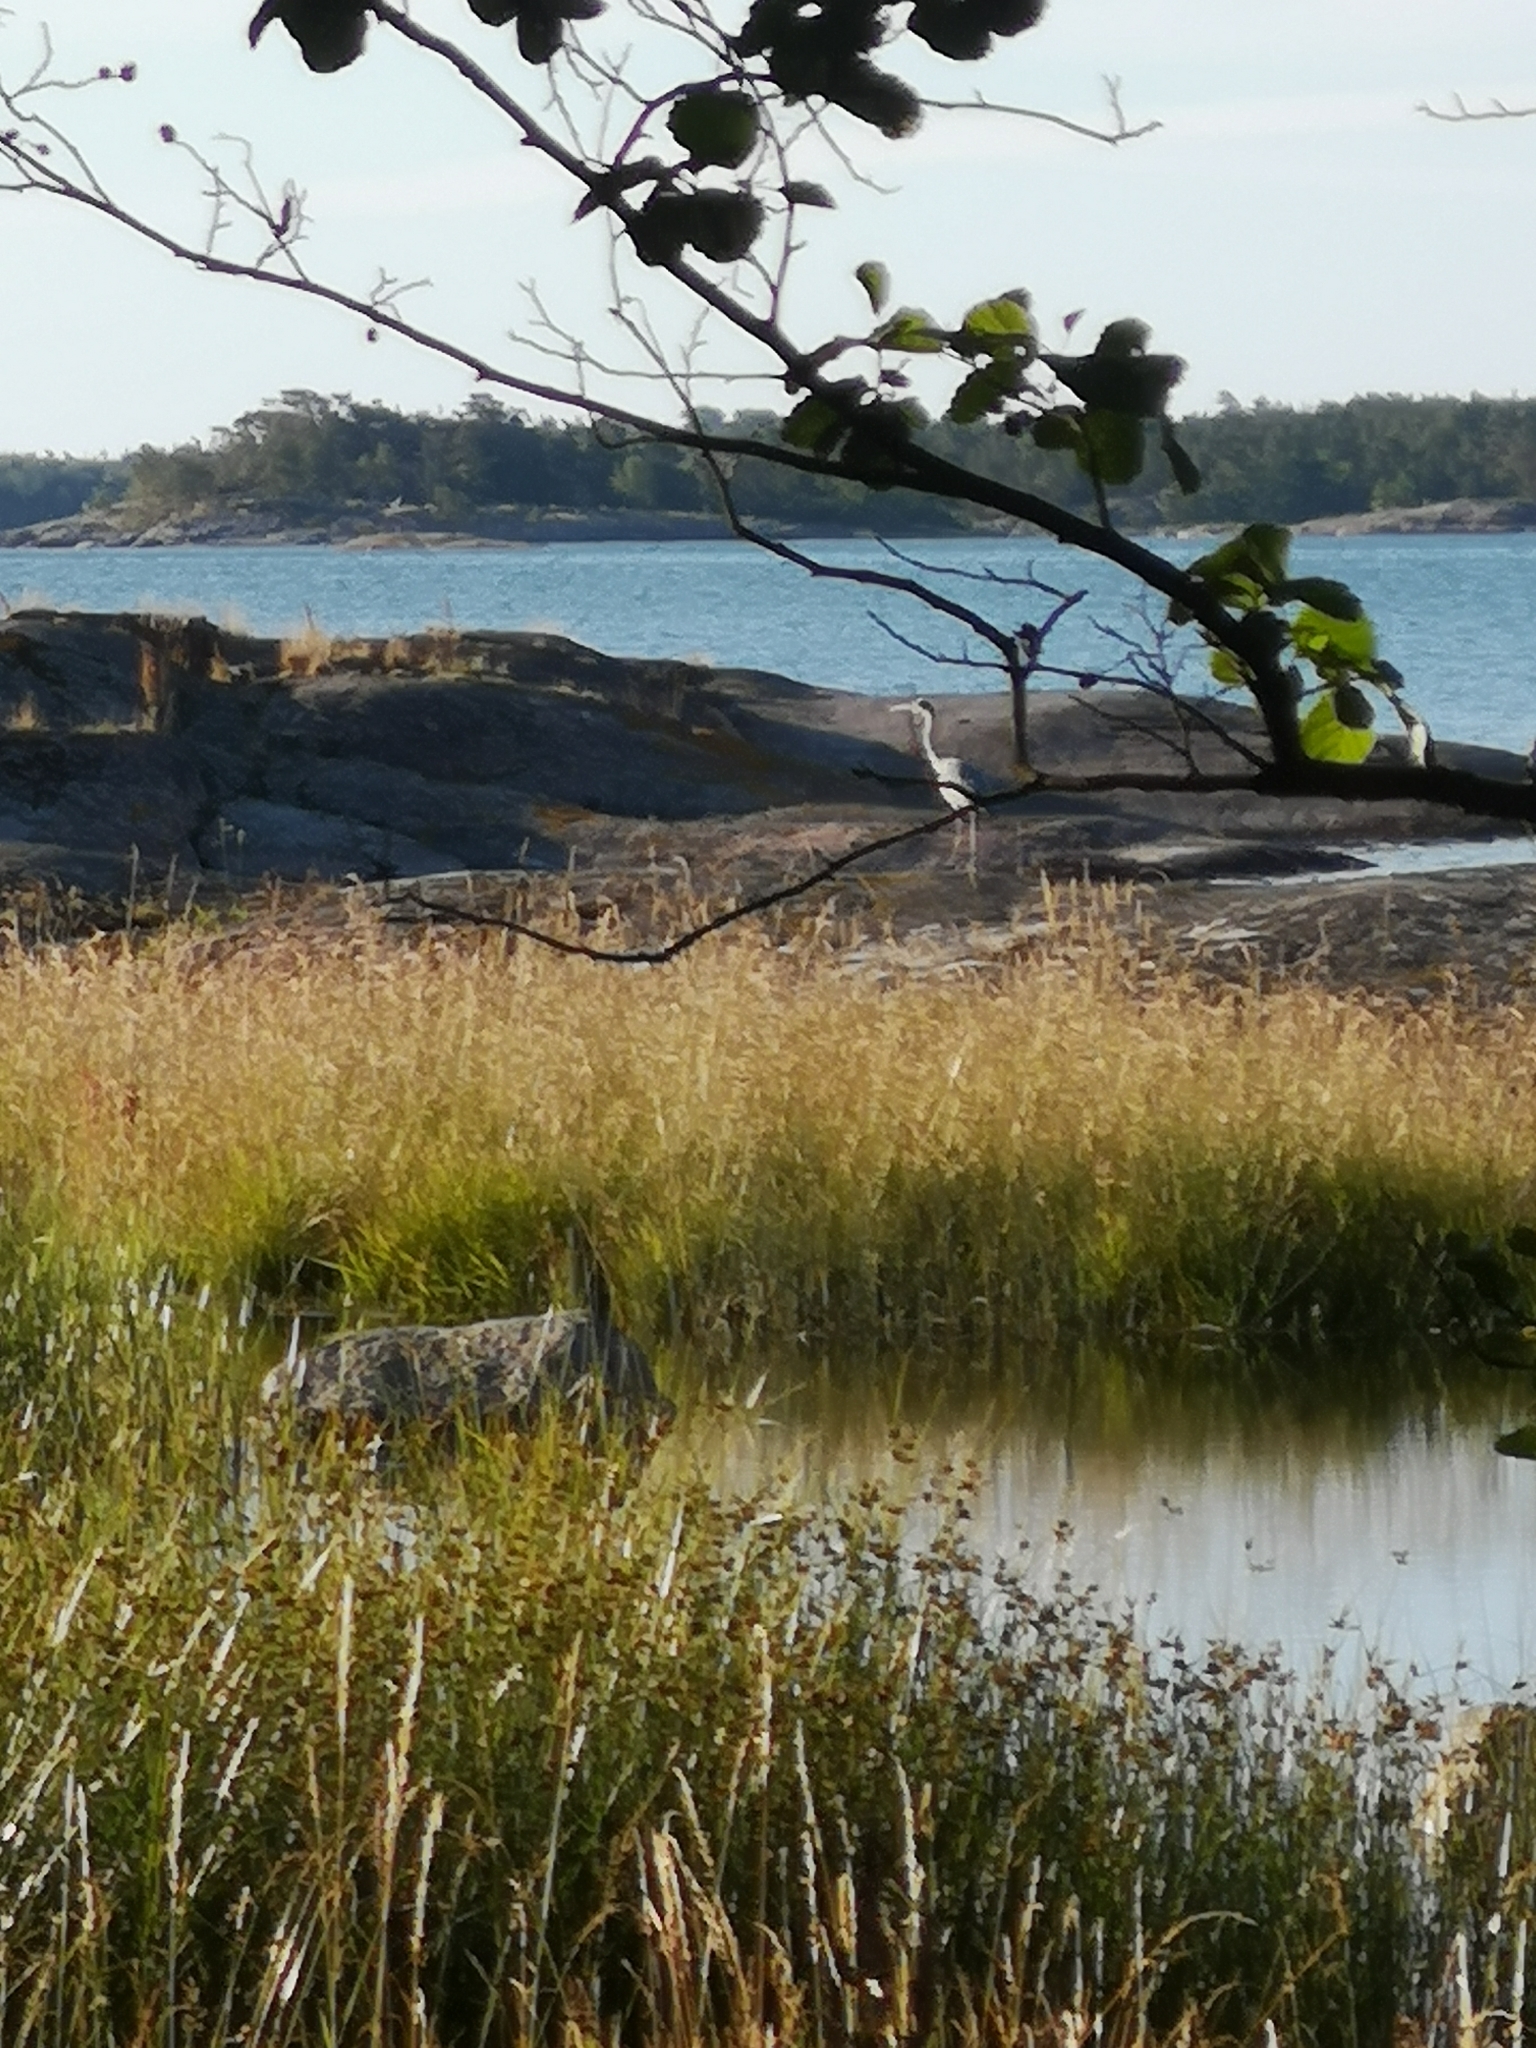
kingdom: Animalia
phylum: Chordata
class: Aves
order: Pelecaniformes
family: Ardeidae
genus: Ardea
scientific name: Ardea cinerea
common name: Grey heron
